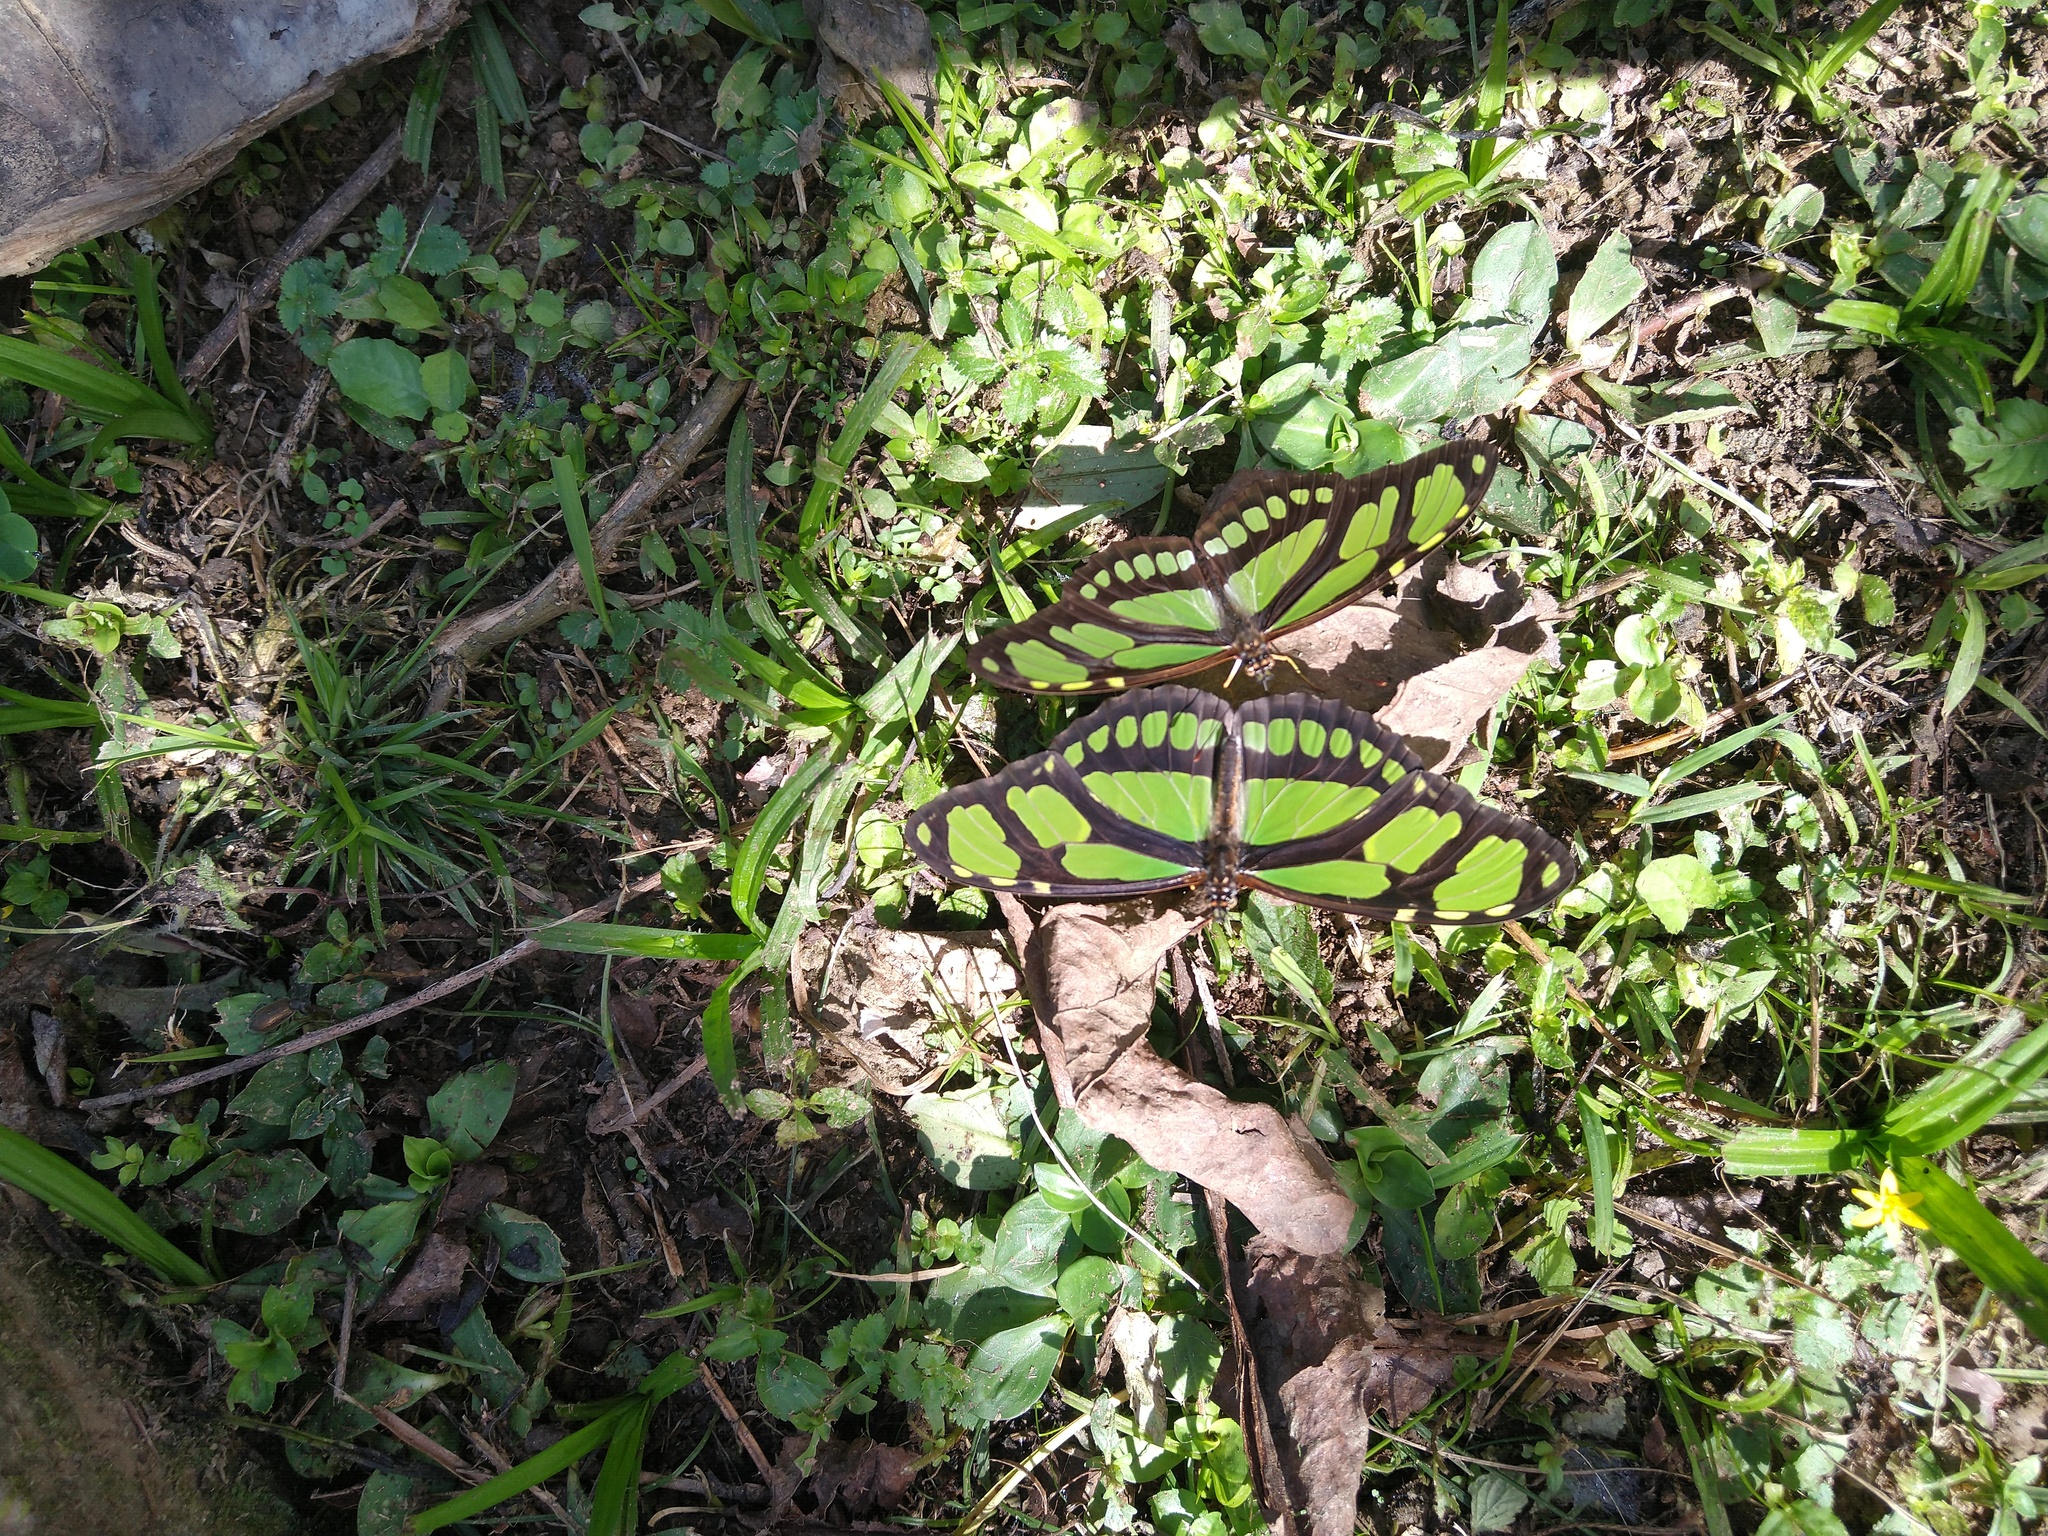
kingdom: Animalia
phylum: Arthropoda
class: Insecta
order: Lepidoptera
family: Nymphalidae
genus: Philaethria
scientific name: Philaethria dido
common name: Scarce bamboo page
